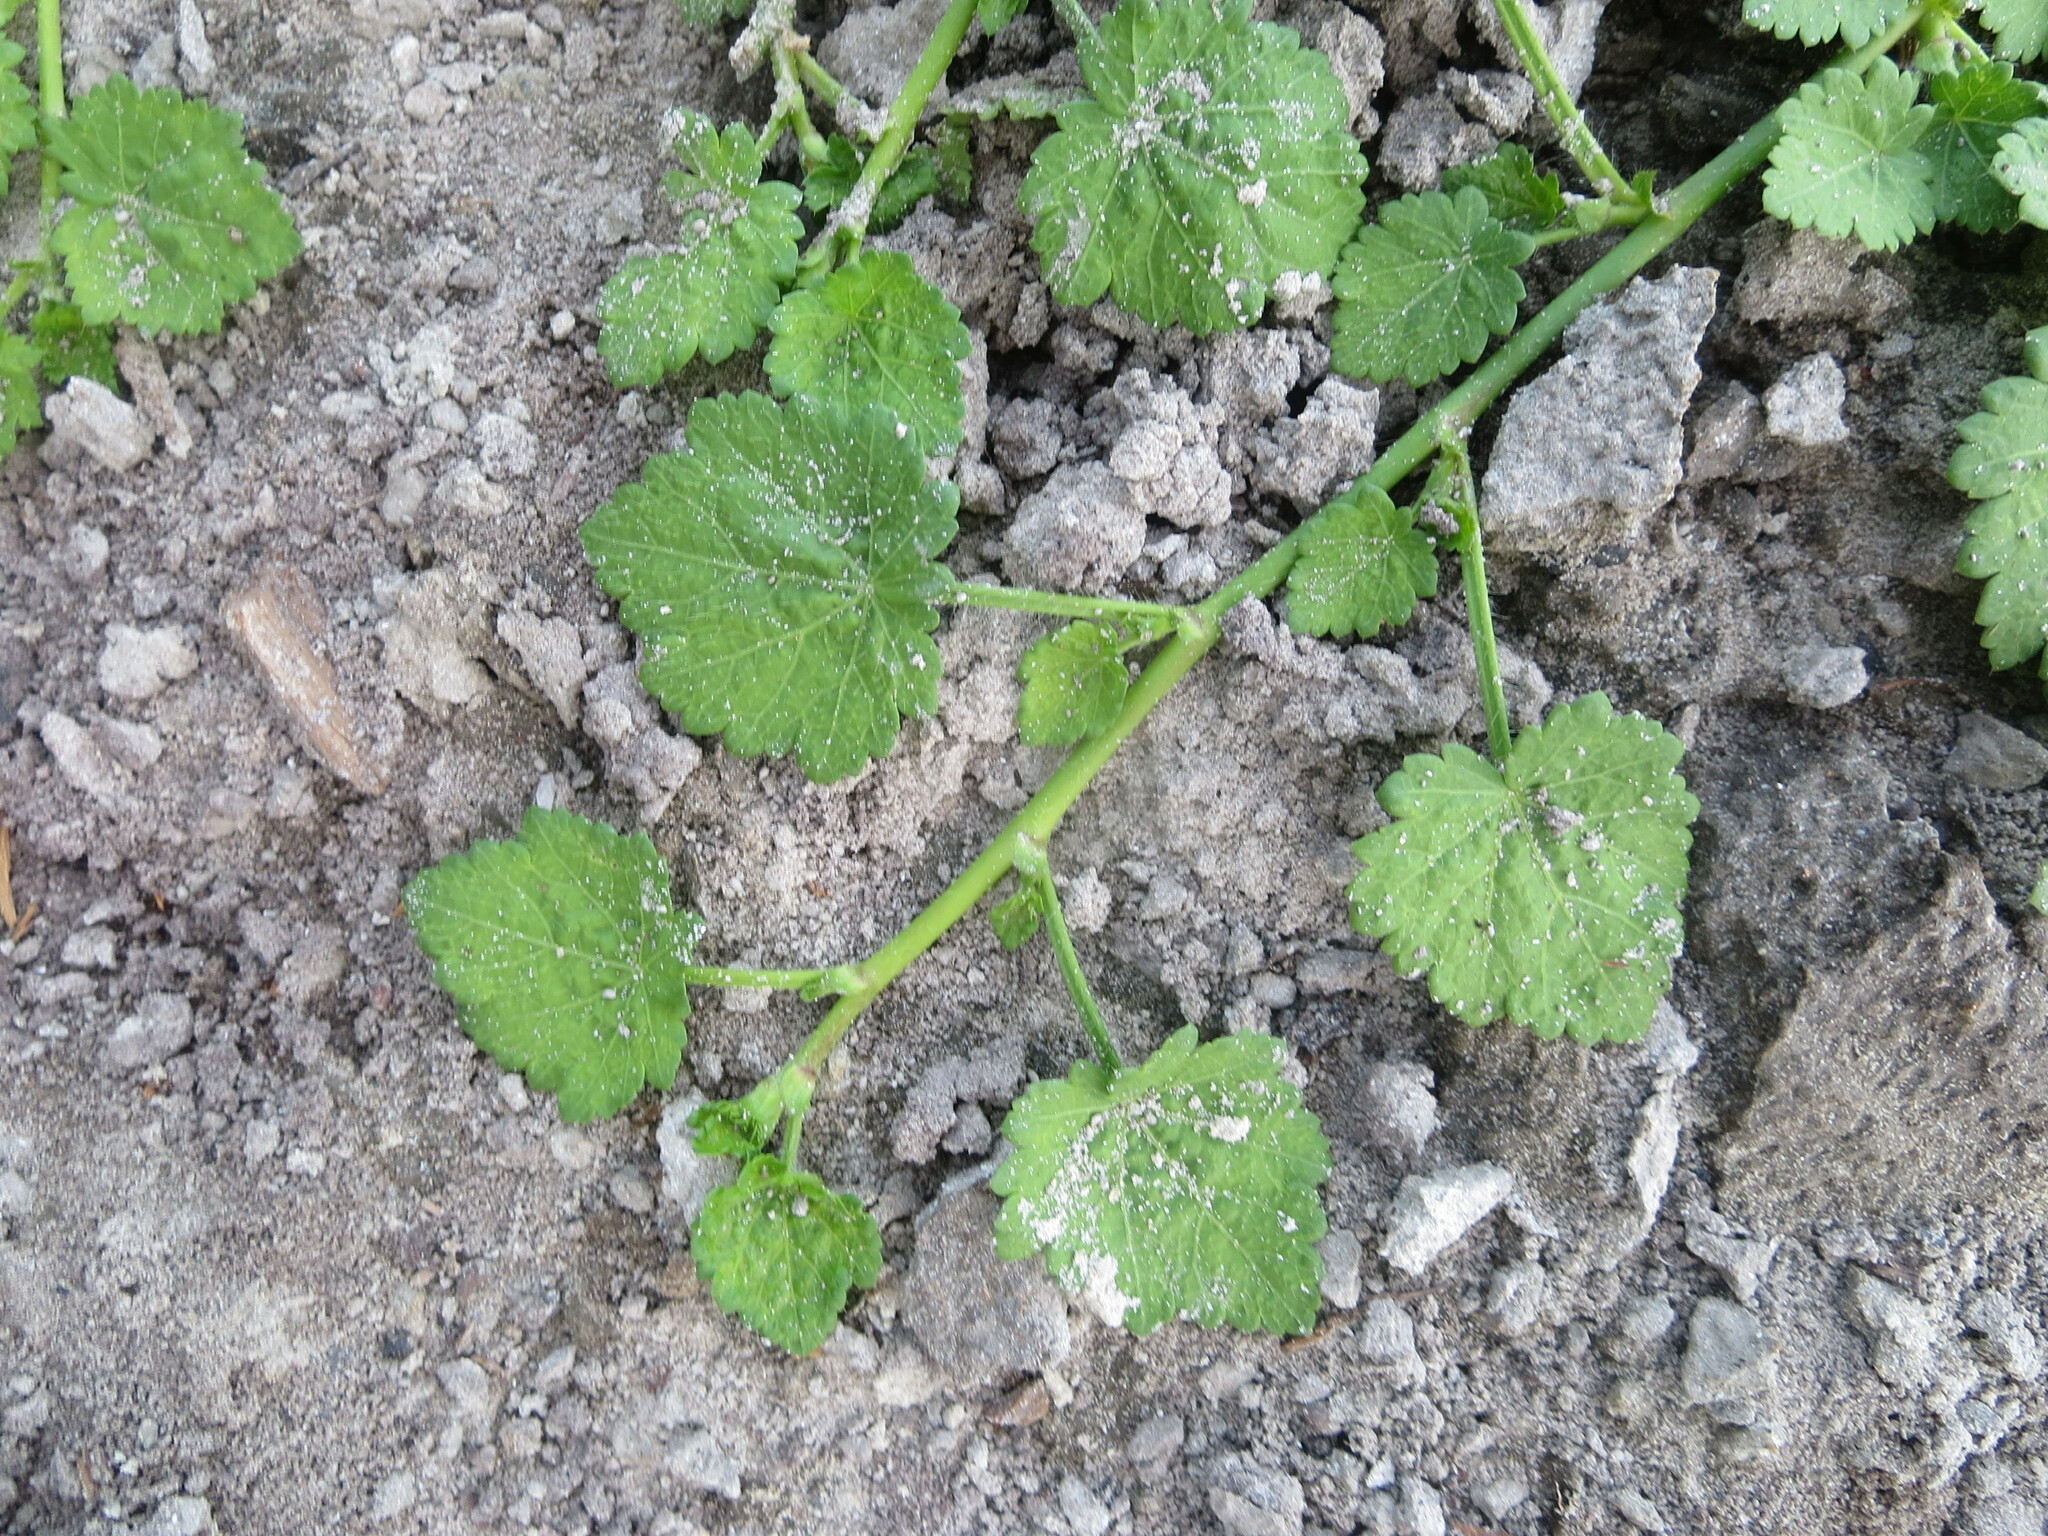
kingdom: Plantae
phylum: Tracheophyta
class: Magnoliopsida
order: Malvales
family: Malvaceae
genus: Modiola
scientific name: Modiola caroliniana
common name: Carolina bristlemallow
